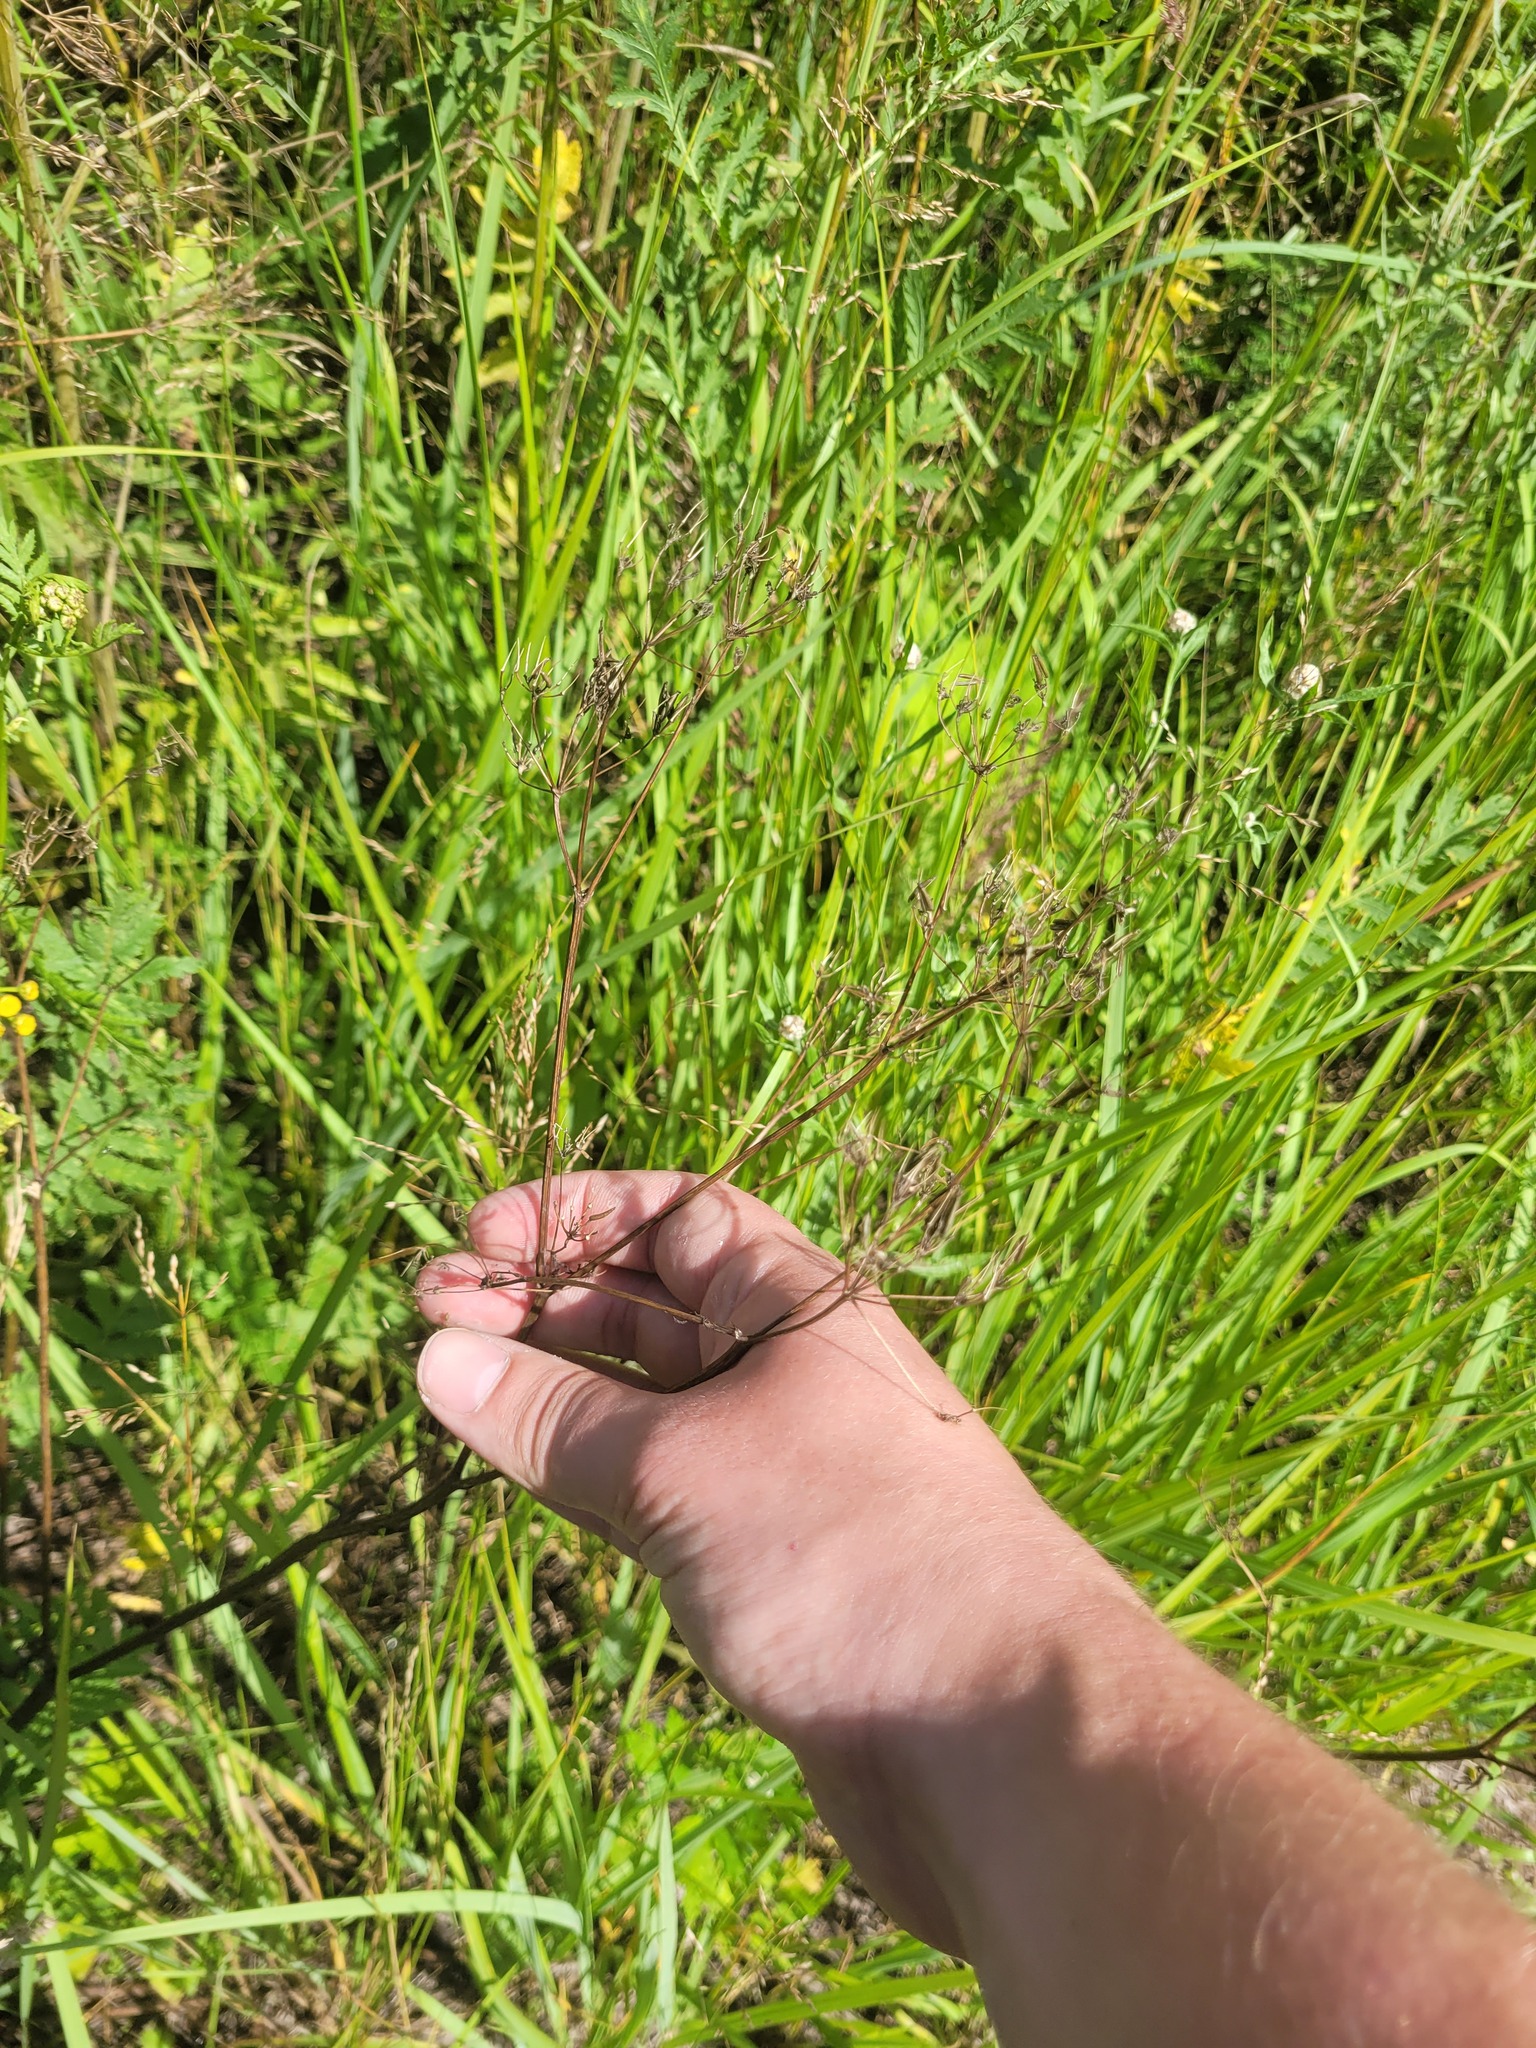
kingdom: Plantae
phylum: Tracheophyta
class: Magnoliopsida
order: Apiales
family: Apiaceae
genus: Anthriscus
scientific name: Anthriscus sylvestris
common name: Cow parsley
